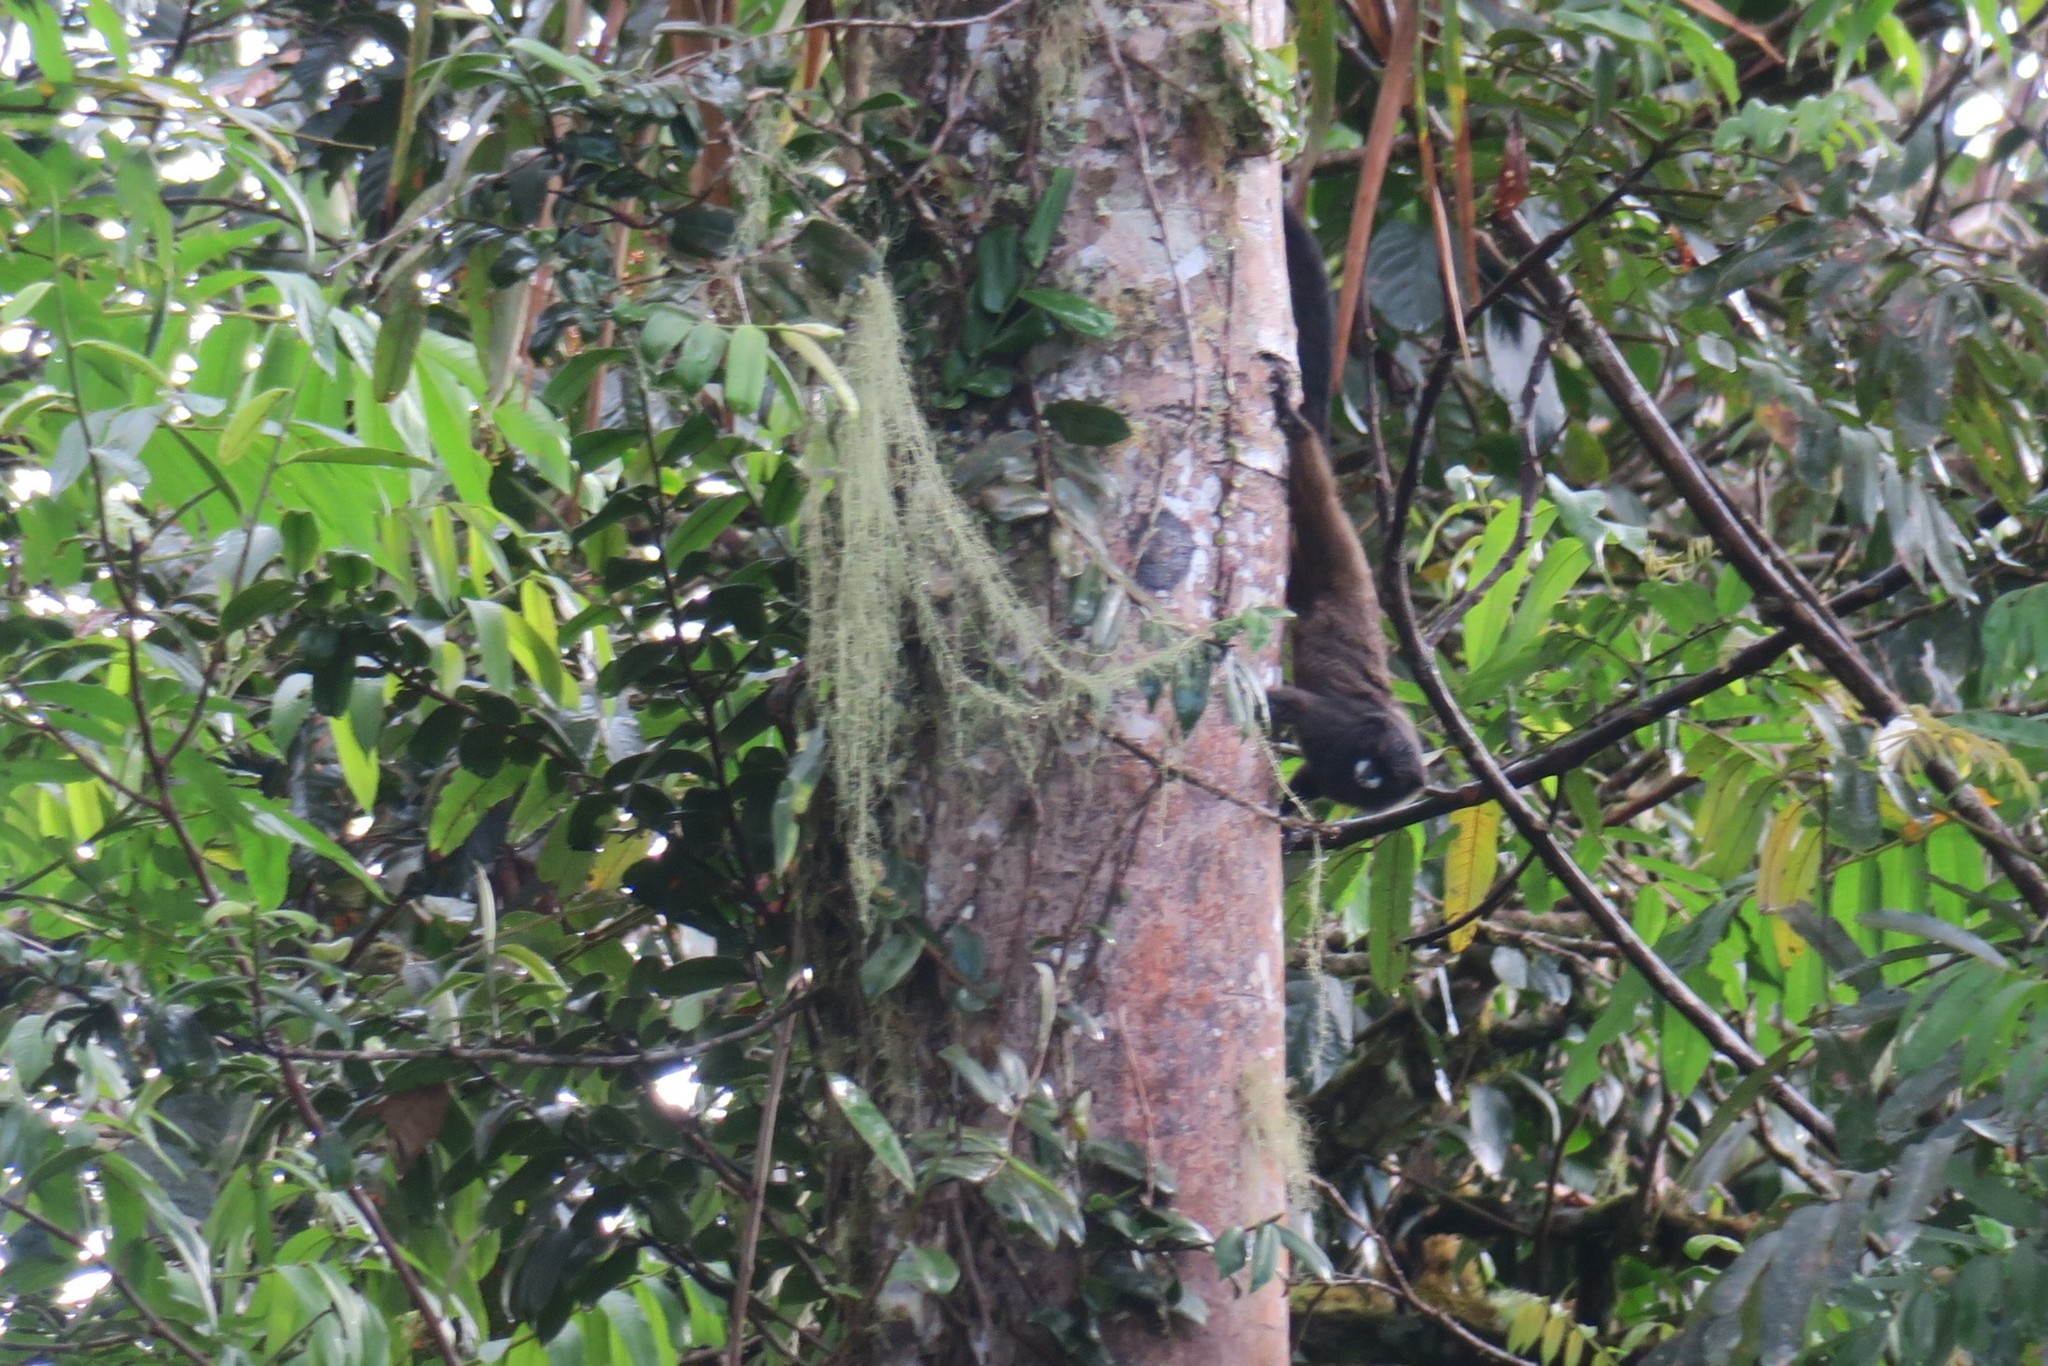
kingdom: Animalia
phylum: Chordata
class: Mammalia
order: Primates
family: Callitrichidae
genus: Leontocebus
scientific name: Leontocebus nigricollis
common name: Black-mantled tamarin
